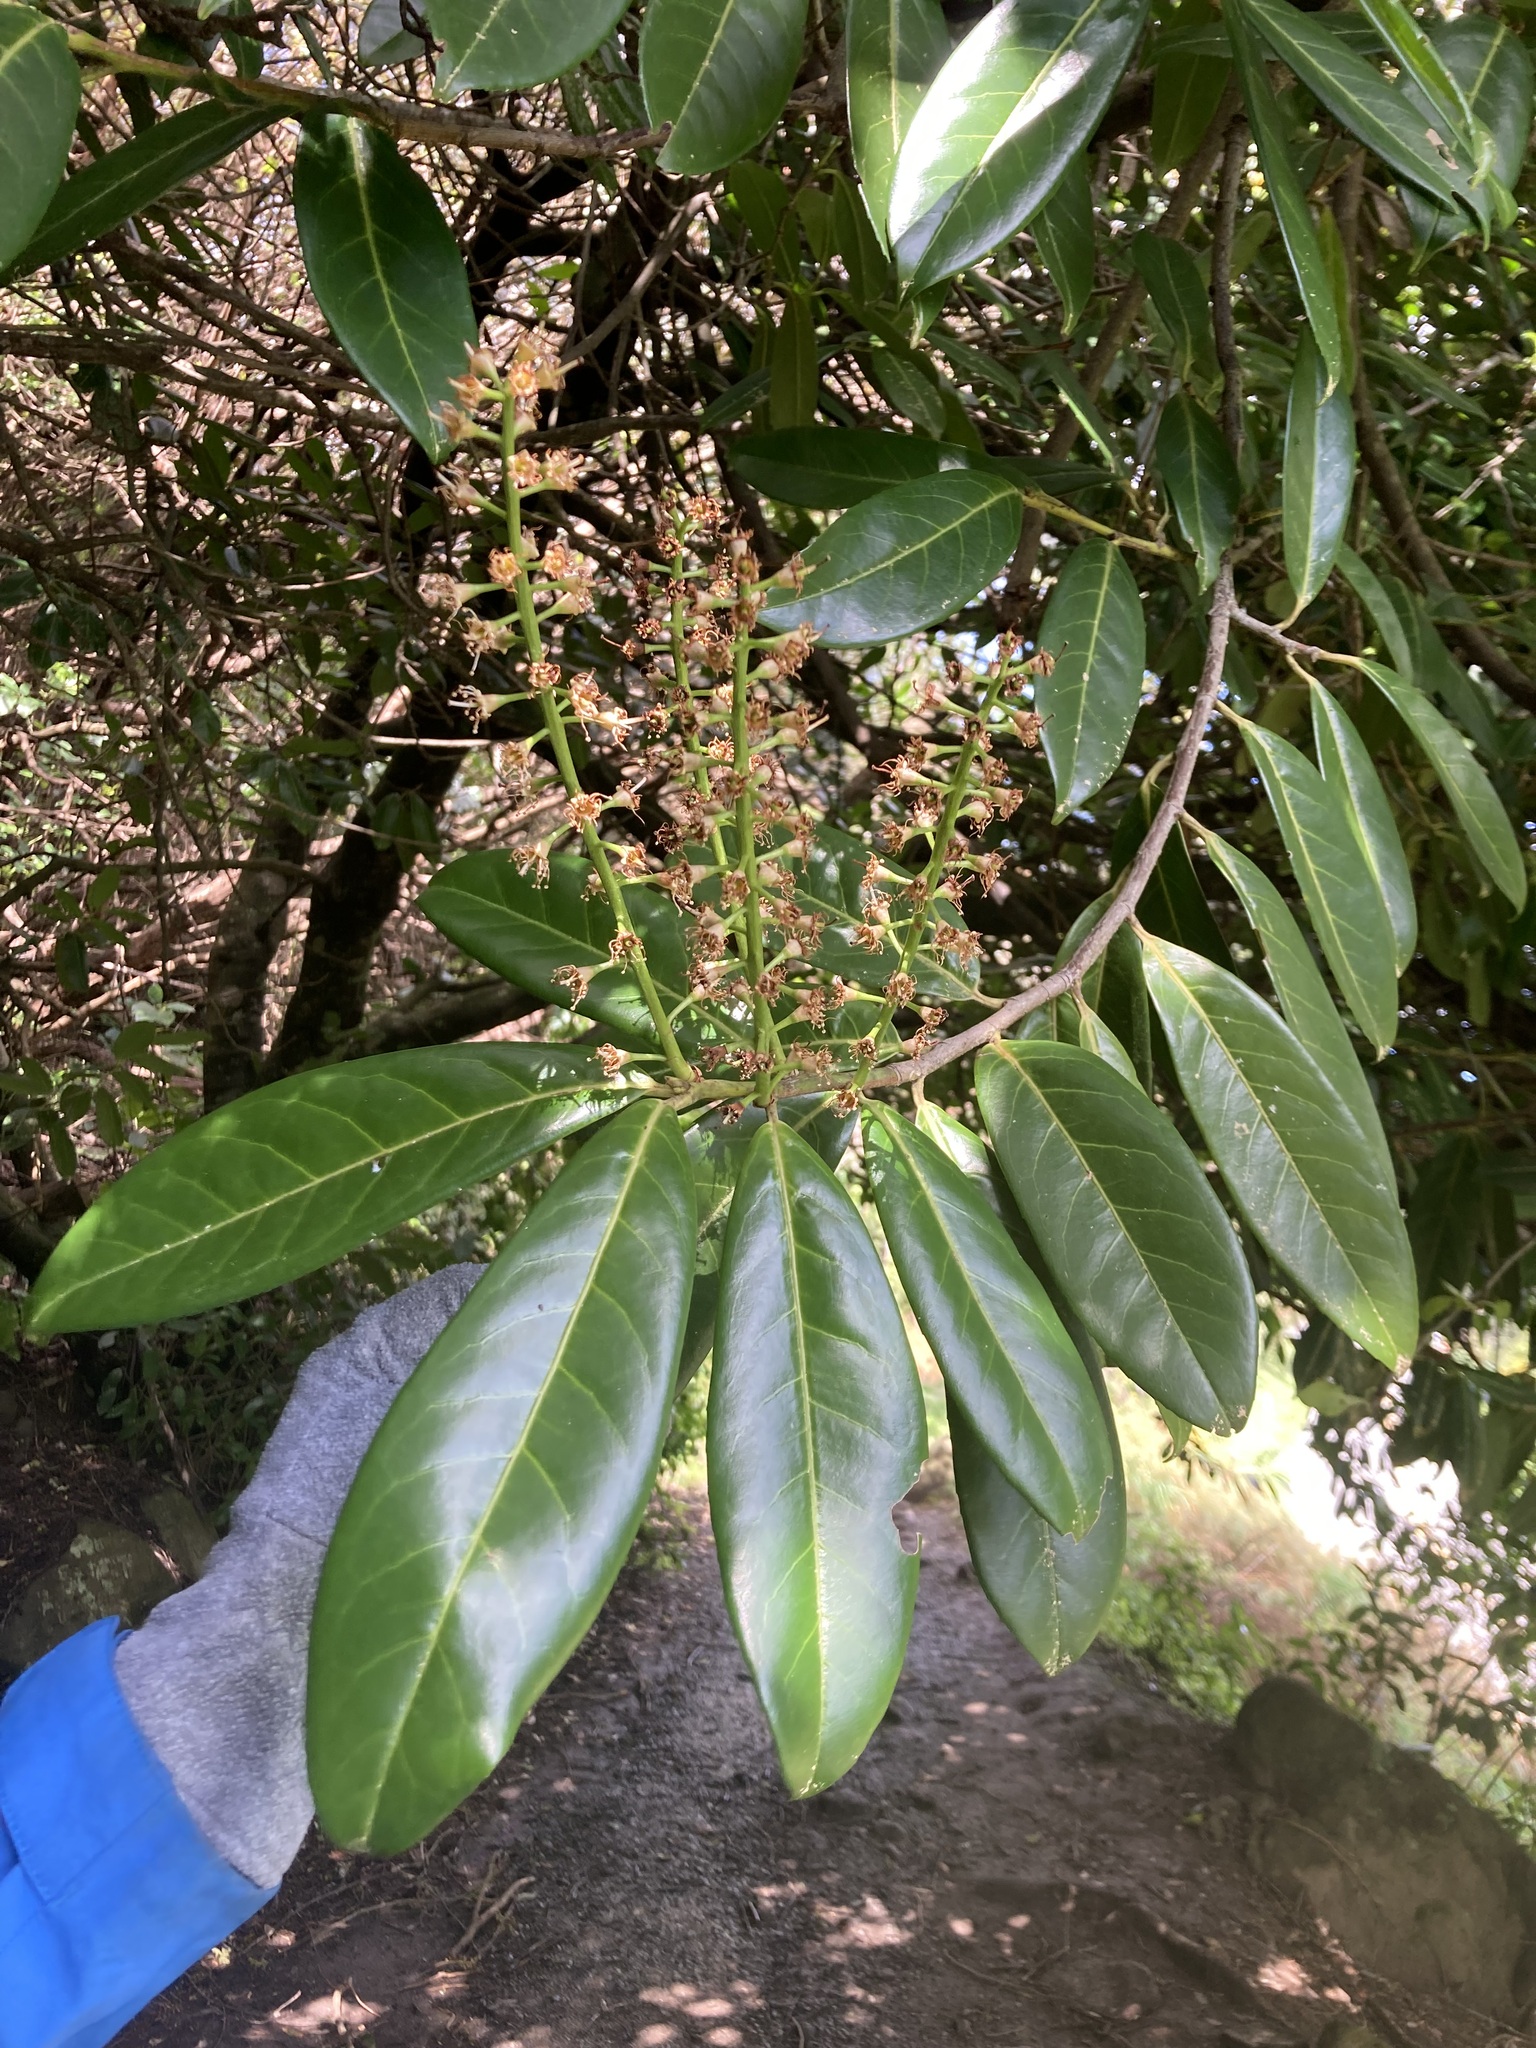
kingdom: Plantae
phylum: Tracheophyta
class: Magnoliopsida
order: Rosales
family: Rosaceae
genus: Prunus
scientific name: Prunus laurocerasus
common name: Cherry laurel
